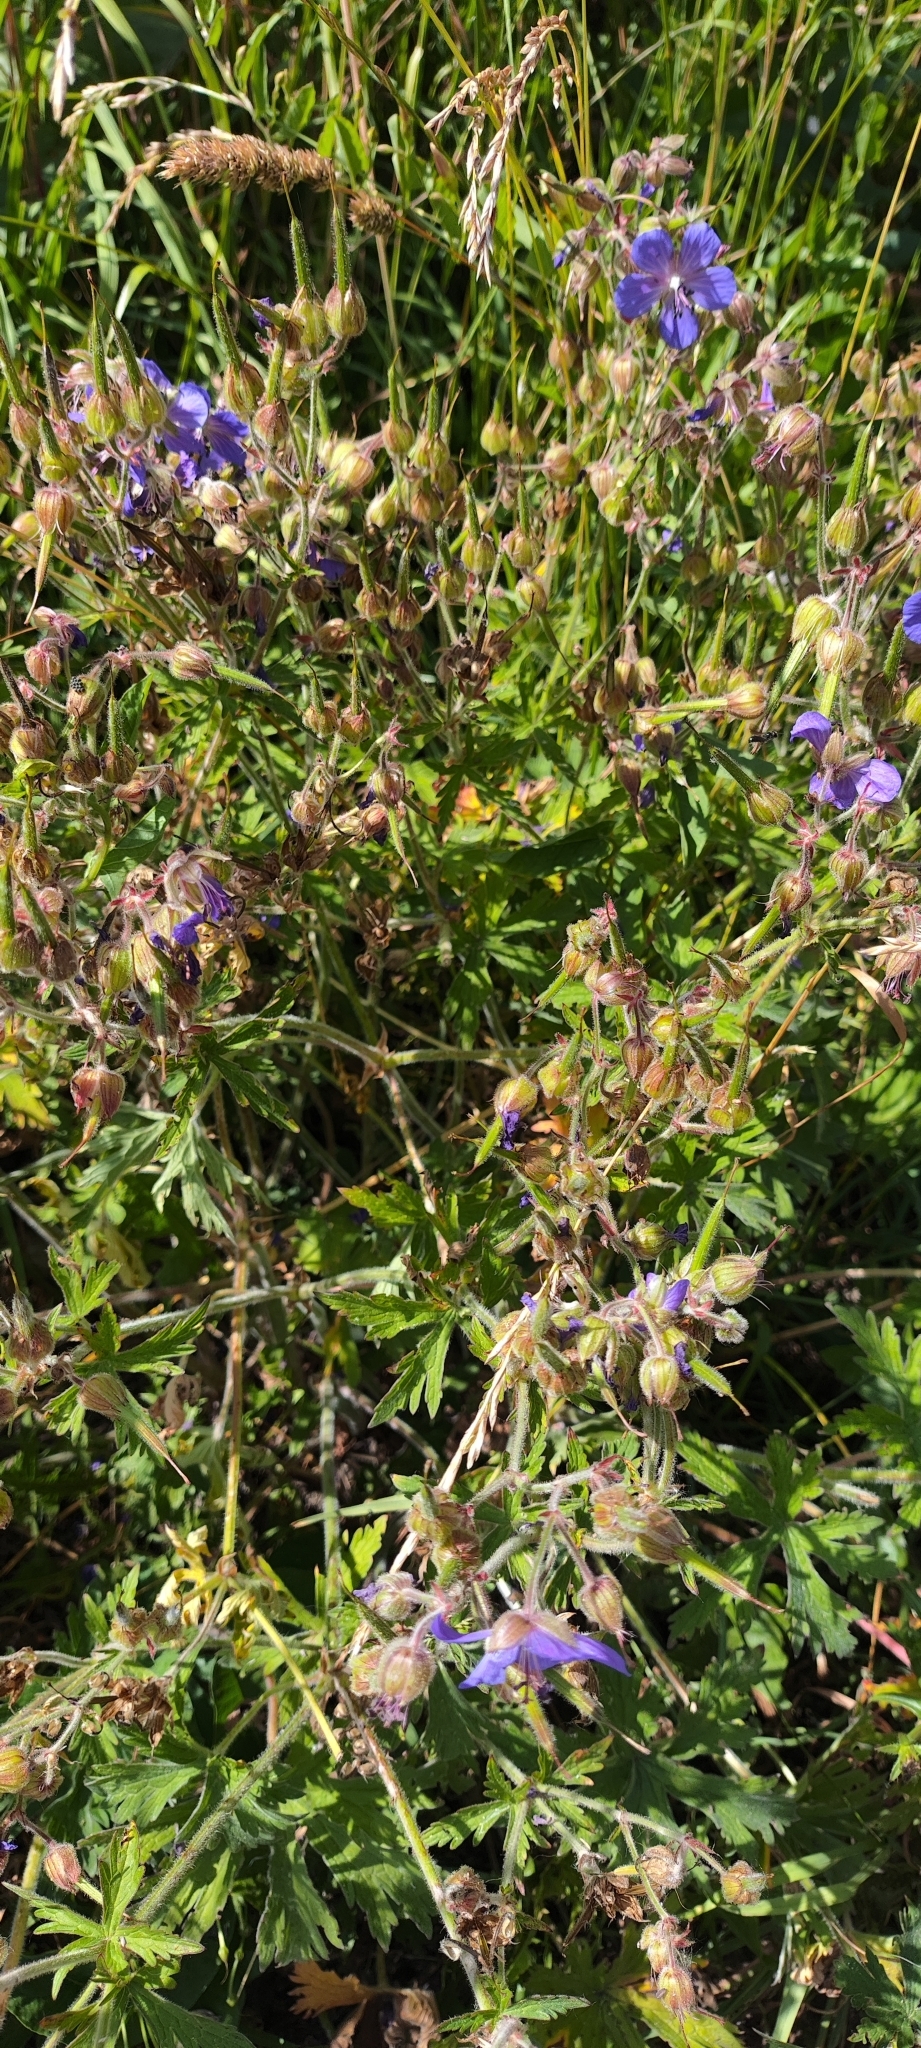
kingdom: Plantae
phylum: Tracheophyta
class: Magnoliopsida
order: Geraniales
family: Geraniaceae
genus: Geranium
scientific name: Geranium pratense
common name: Meadow crane's-bill
